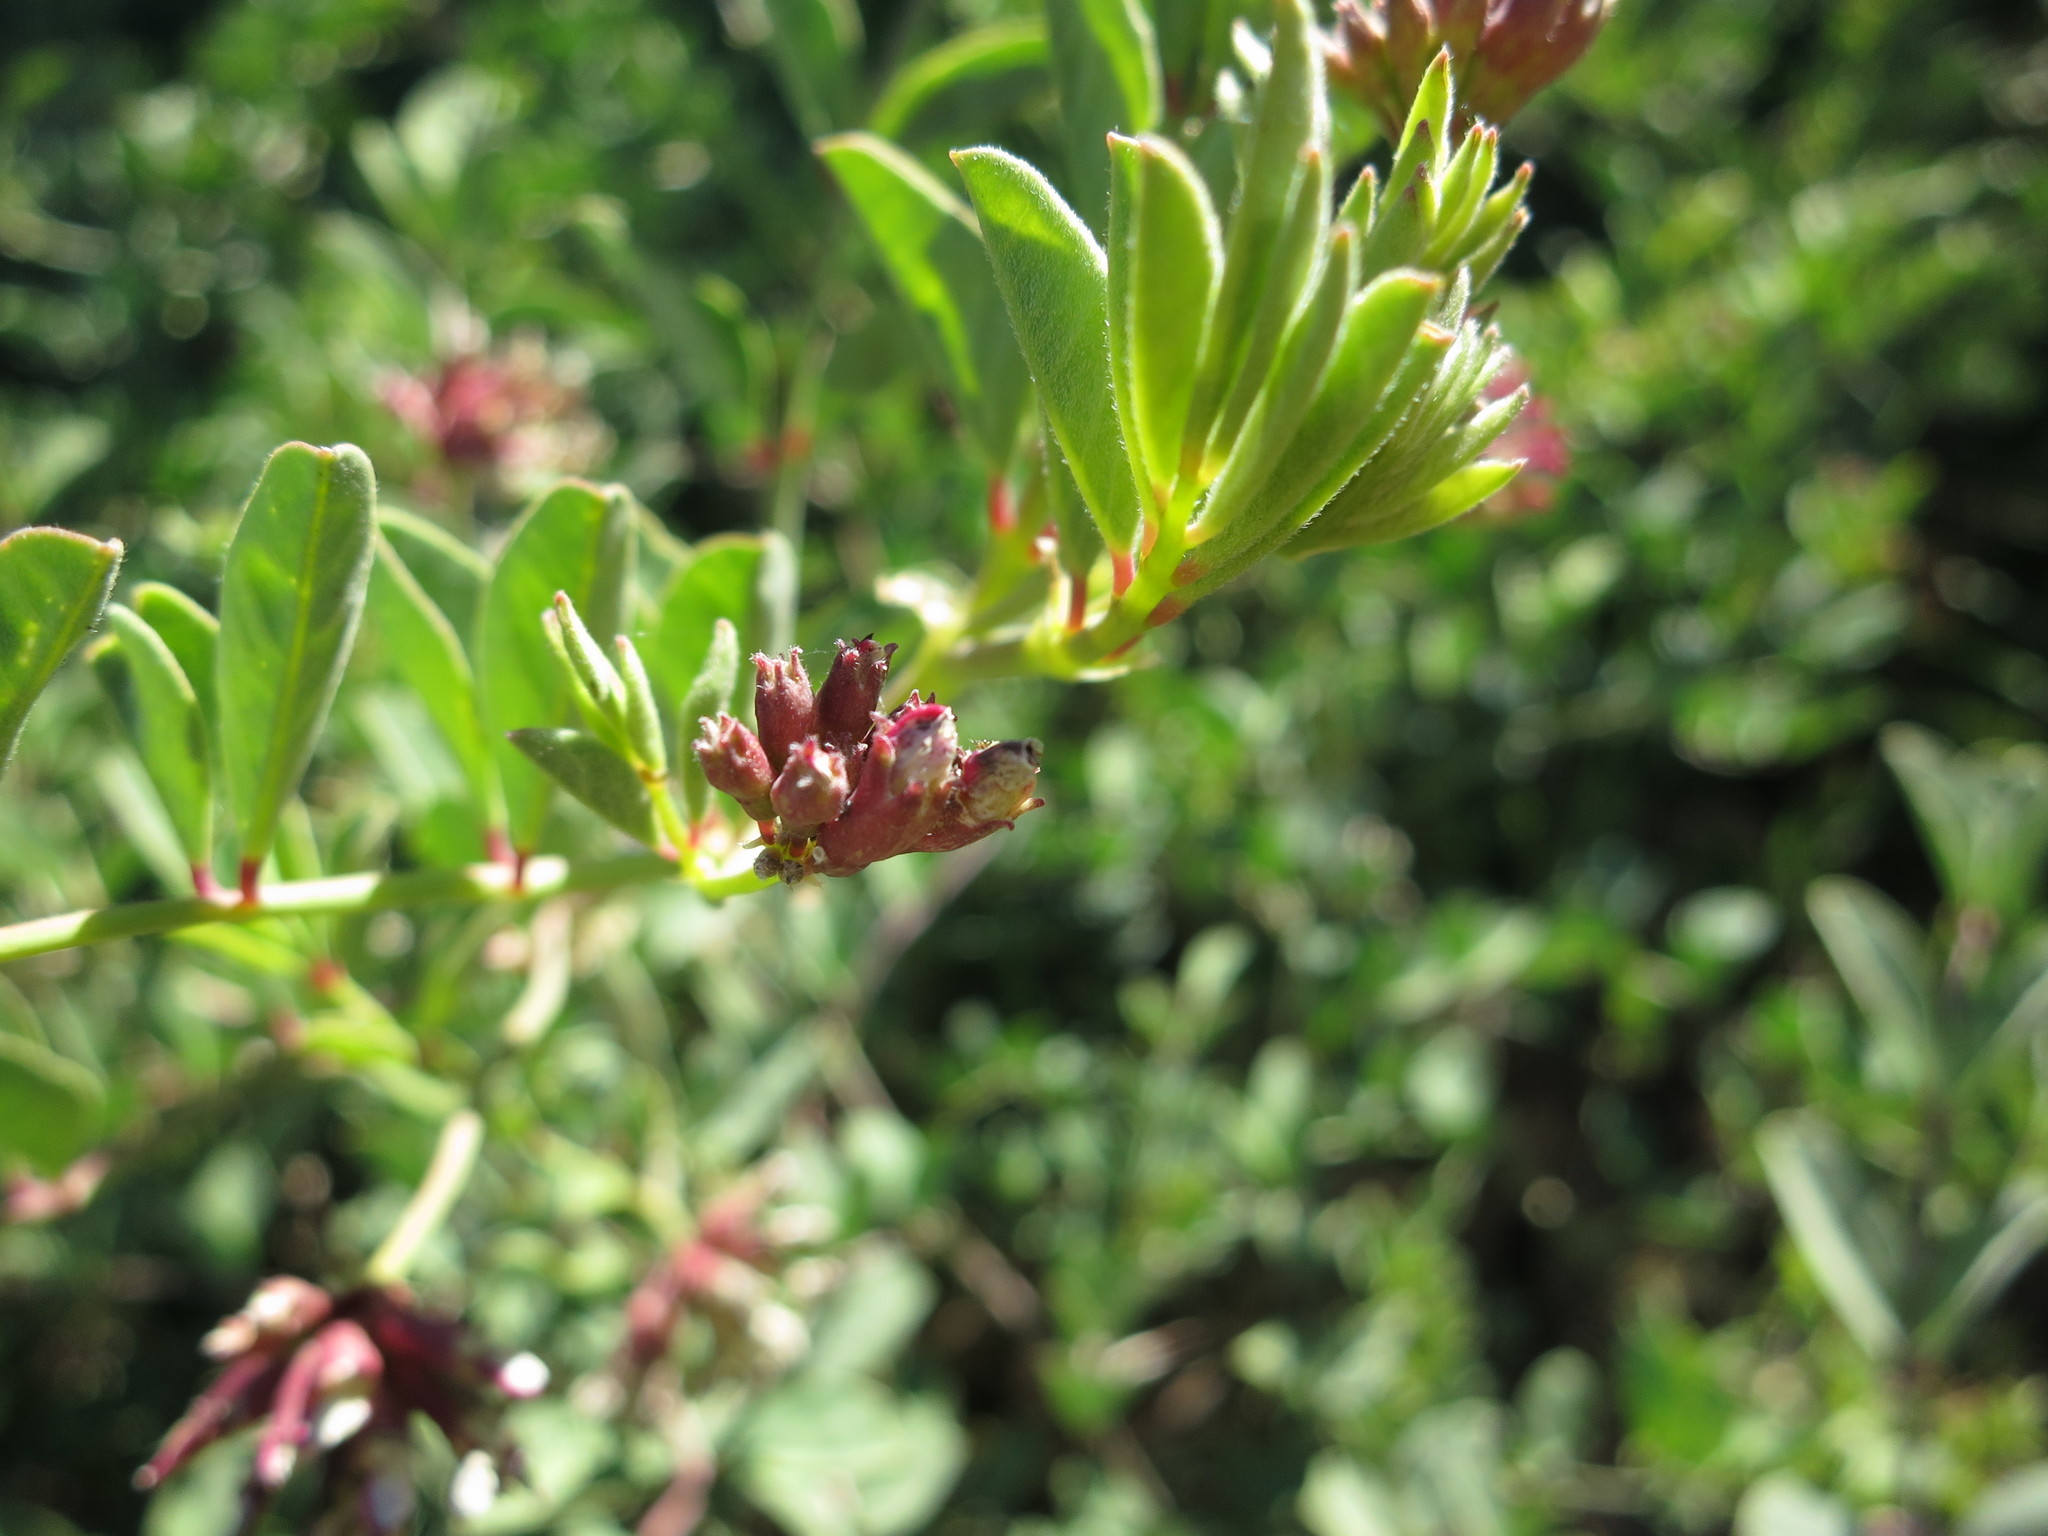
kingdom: Plantae
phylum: Tracheophyta
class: Magnoliopsida
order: Fabales
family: Fabaceae
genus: Hosackia
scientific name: Hosackia crassifolia
